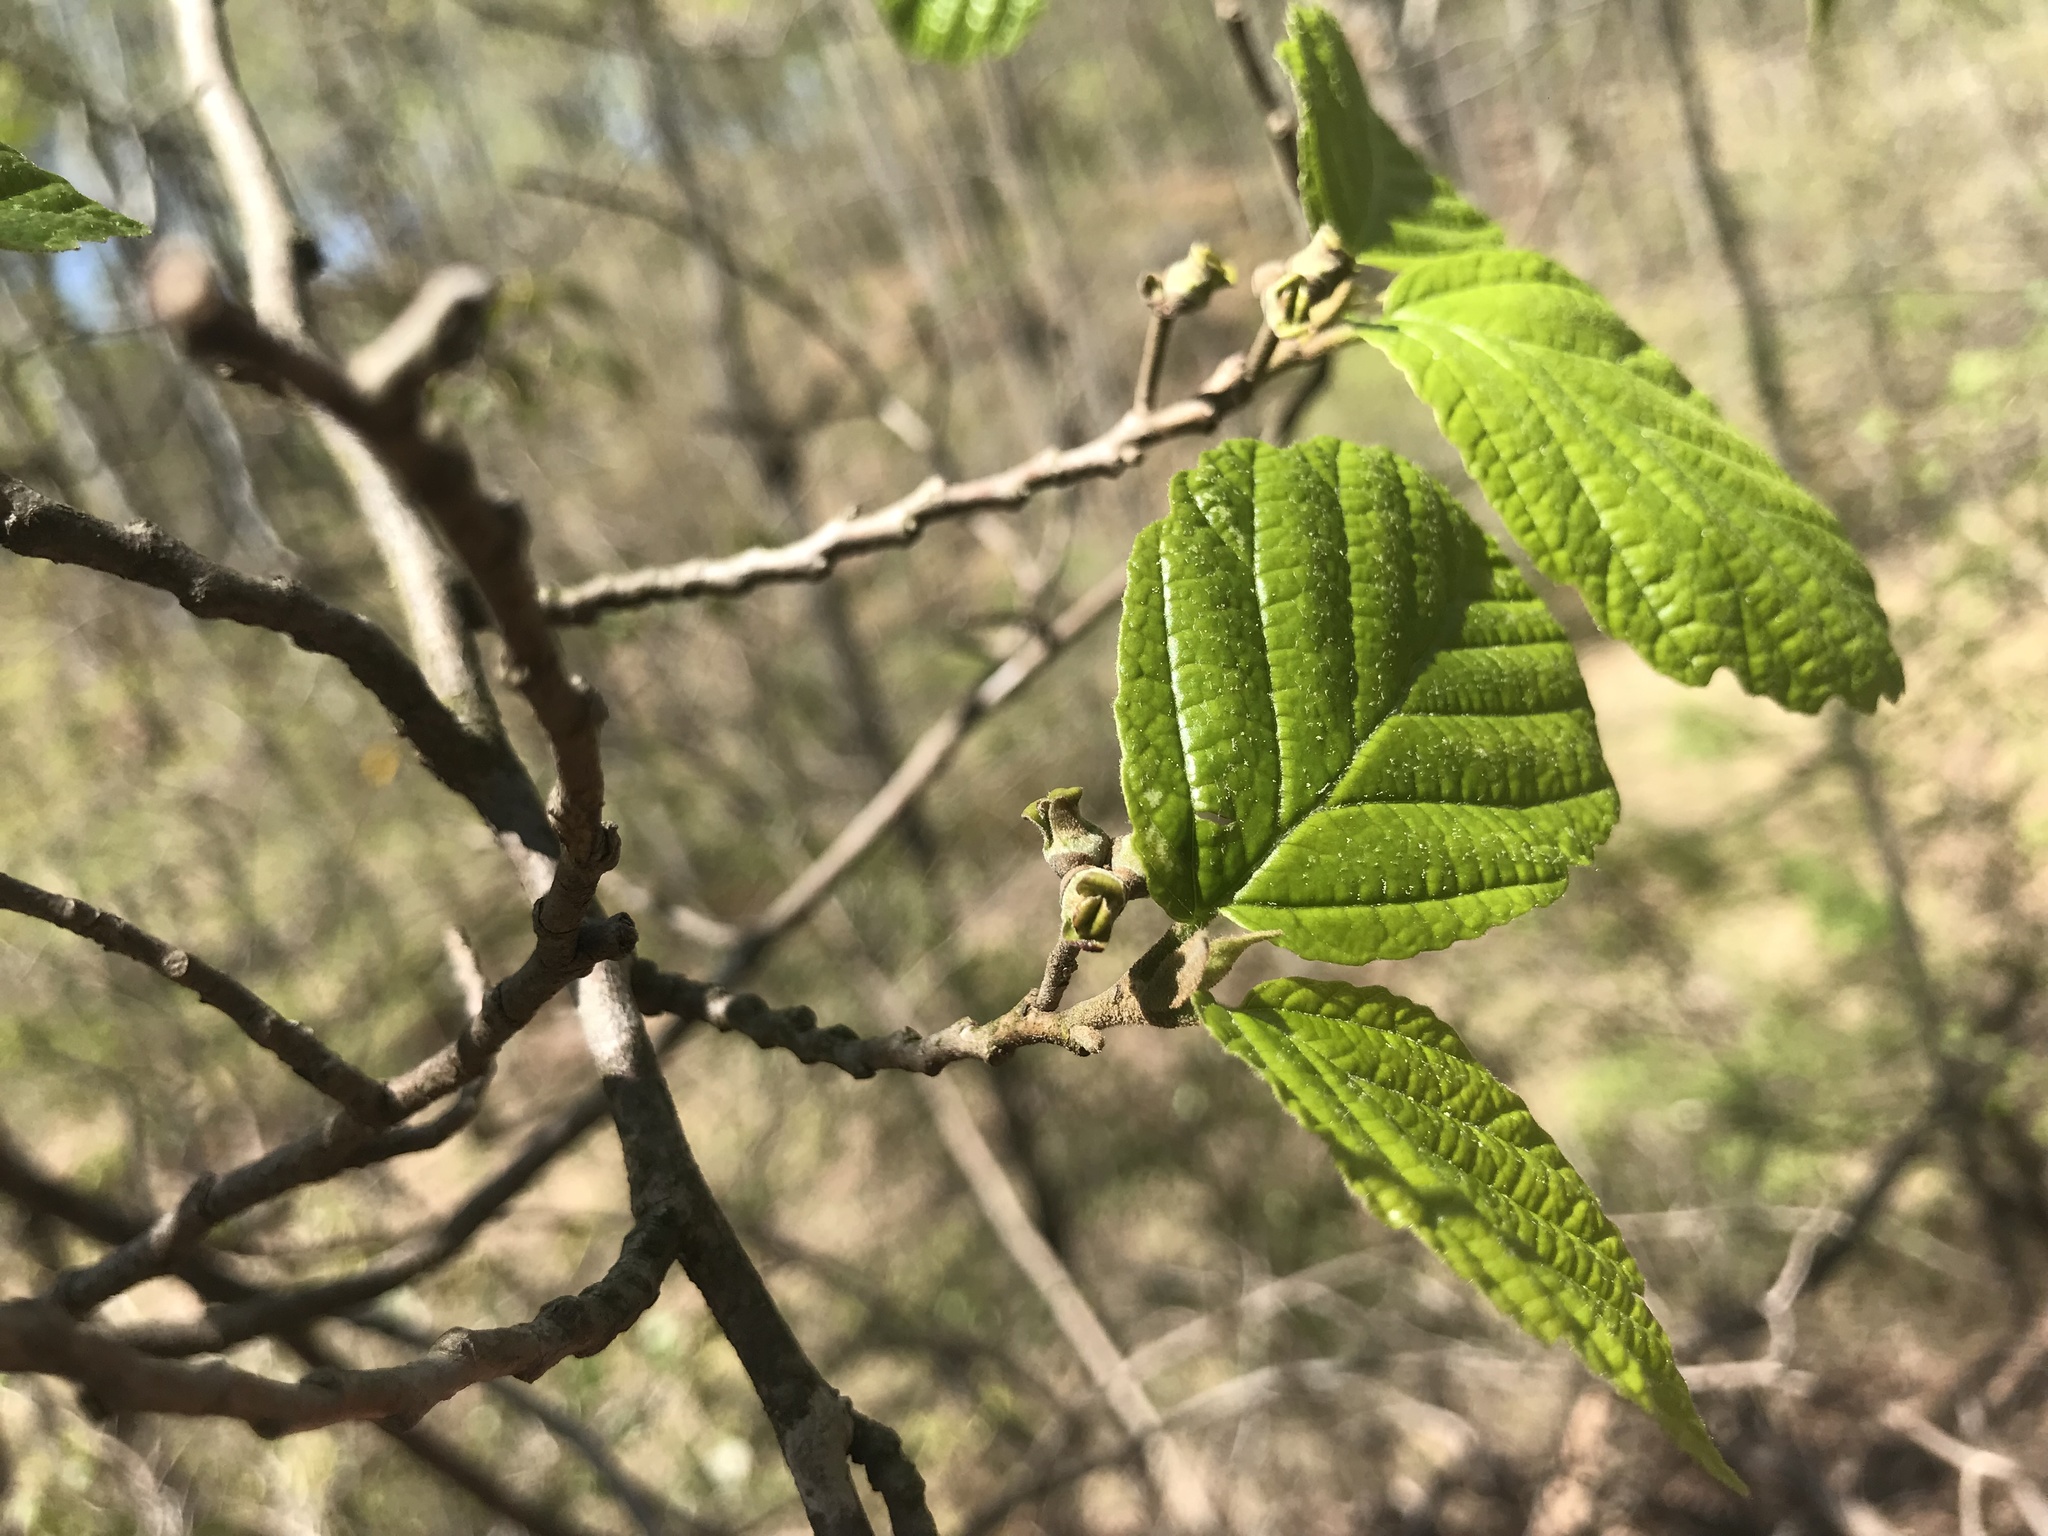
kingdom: Plantae
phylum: Tracheophyta
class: Magnoliopsida
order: Saxifragales
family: Hamamelidaceae
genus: Hamamelis
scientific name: Hamamelis virginiana
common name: Witch-hazel
